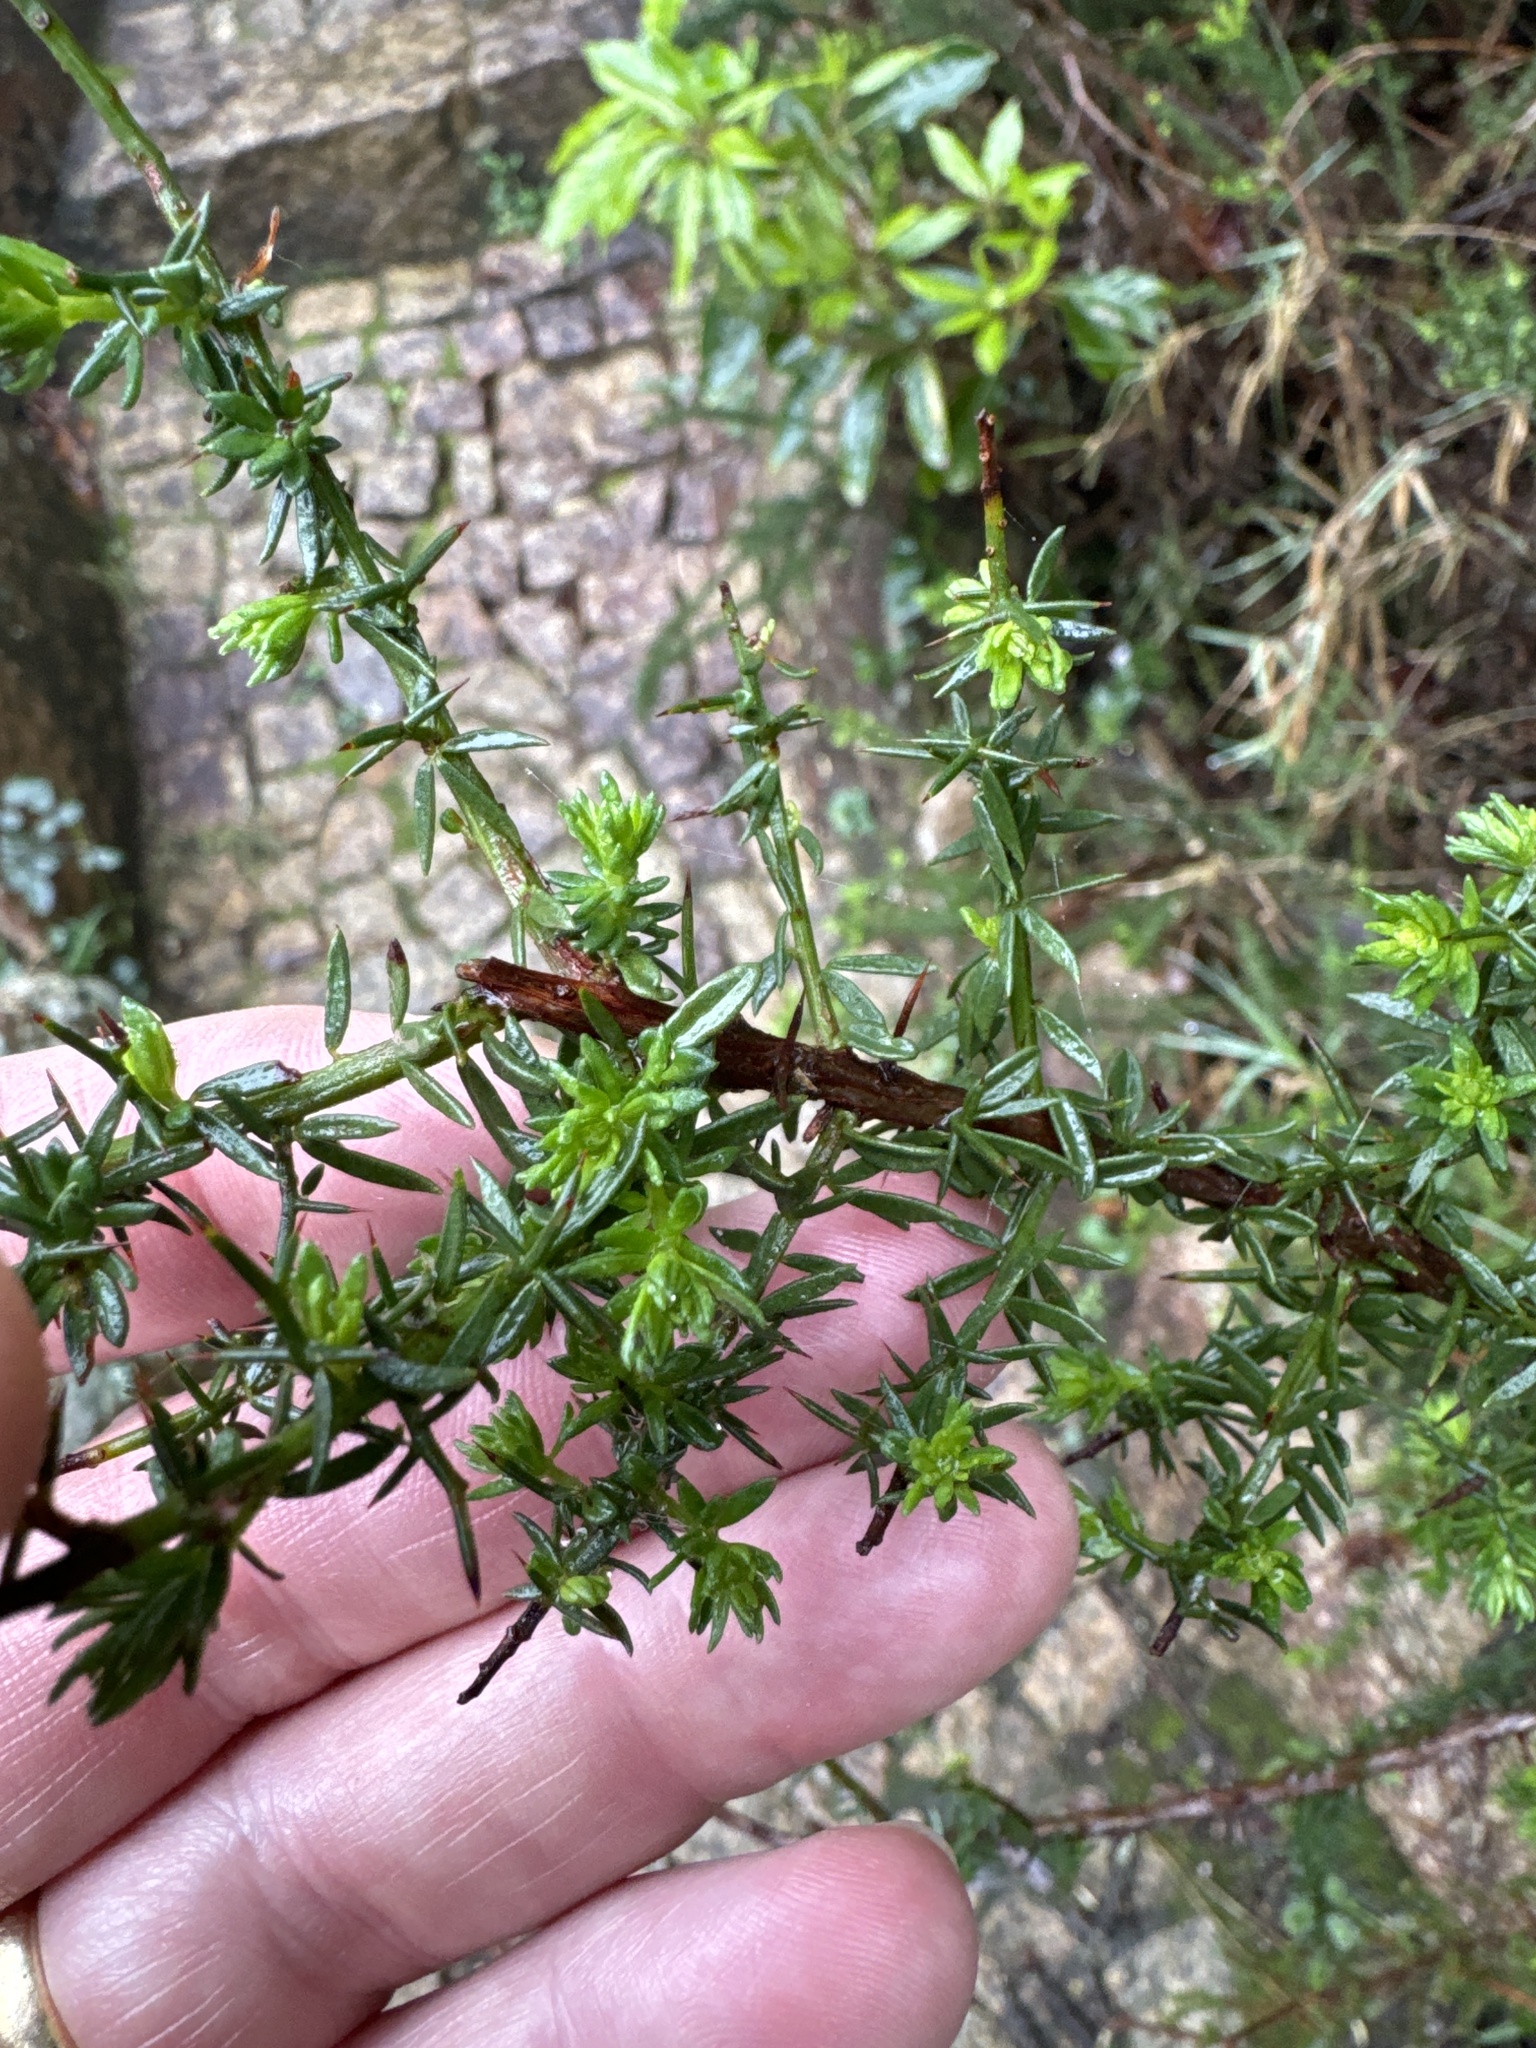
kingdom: Plantae
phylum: Tracheophyta
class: Magnoliopsida
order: Fabales
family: Fabaceae
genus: Genista
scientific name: Genista triacanthos
